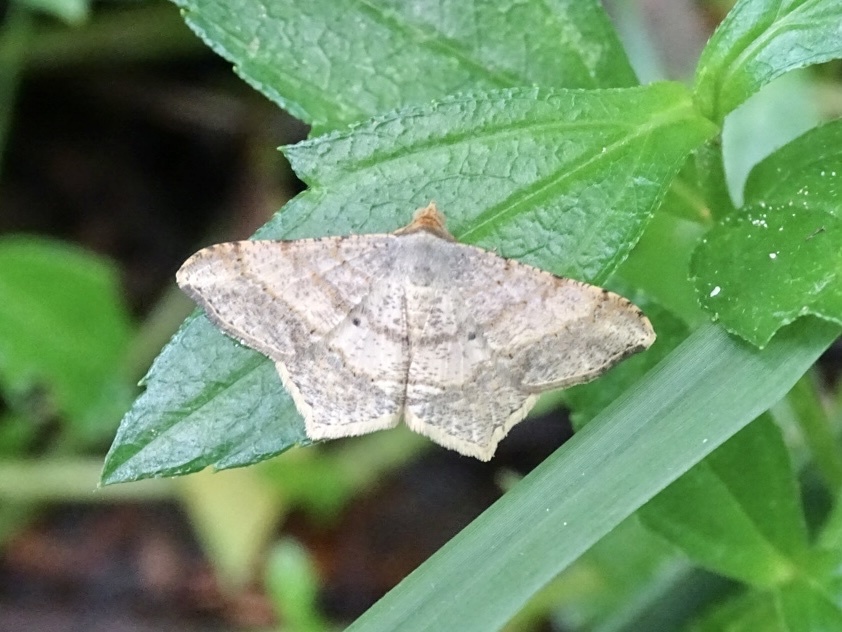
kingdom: Animalia
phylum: Arthropoda
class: Insecta
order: Lepidoptera
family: Geometridae
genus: Macaria
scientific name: Macaria abydata
